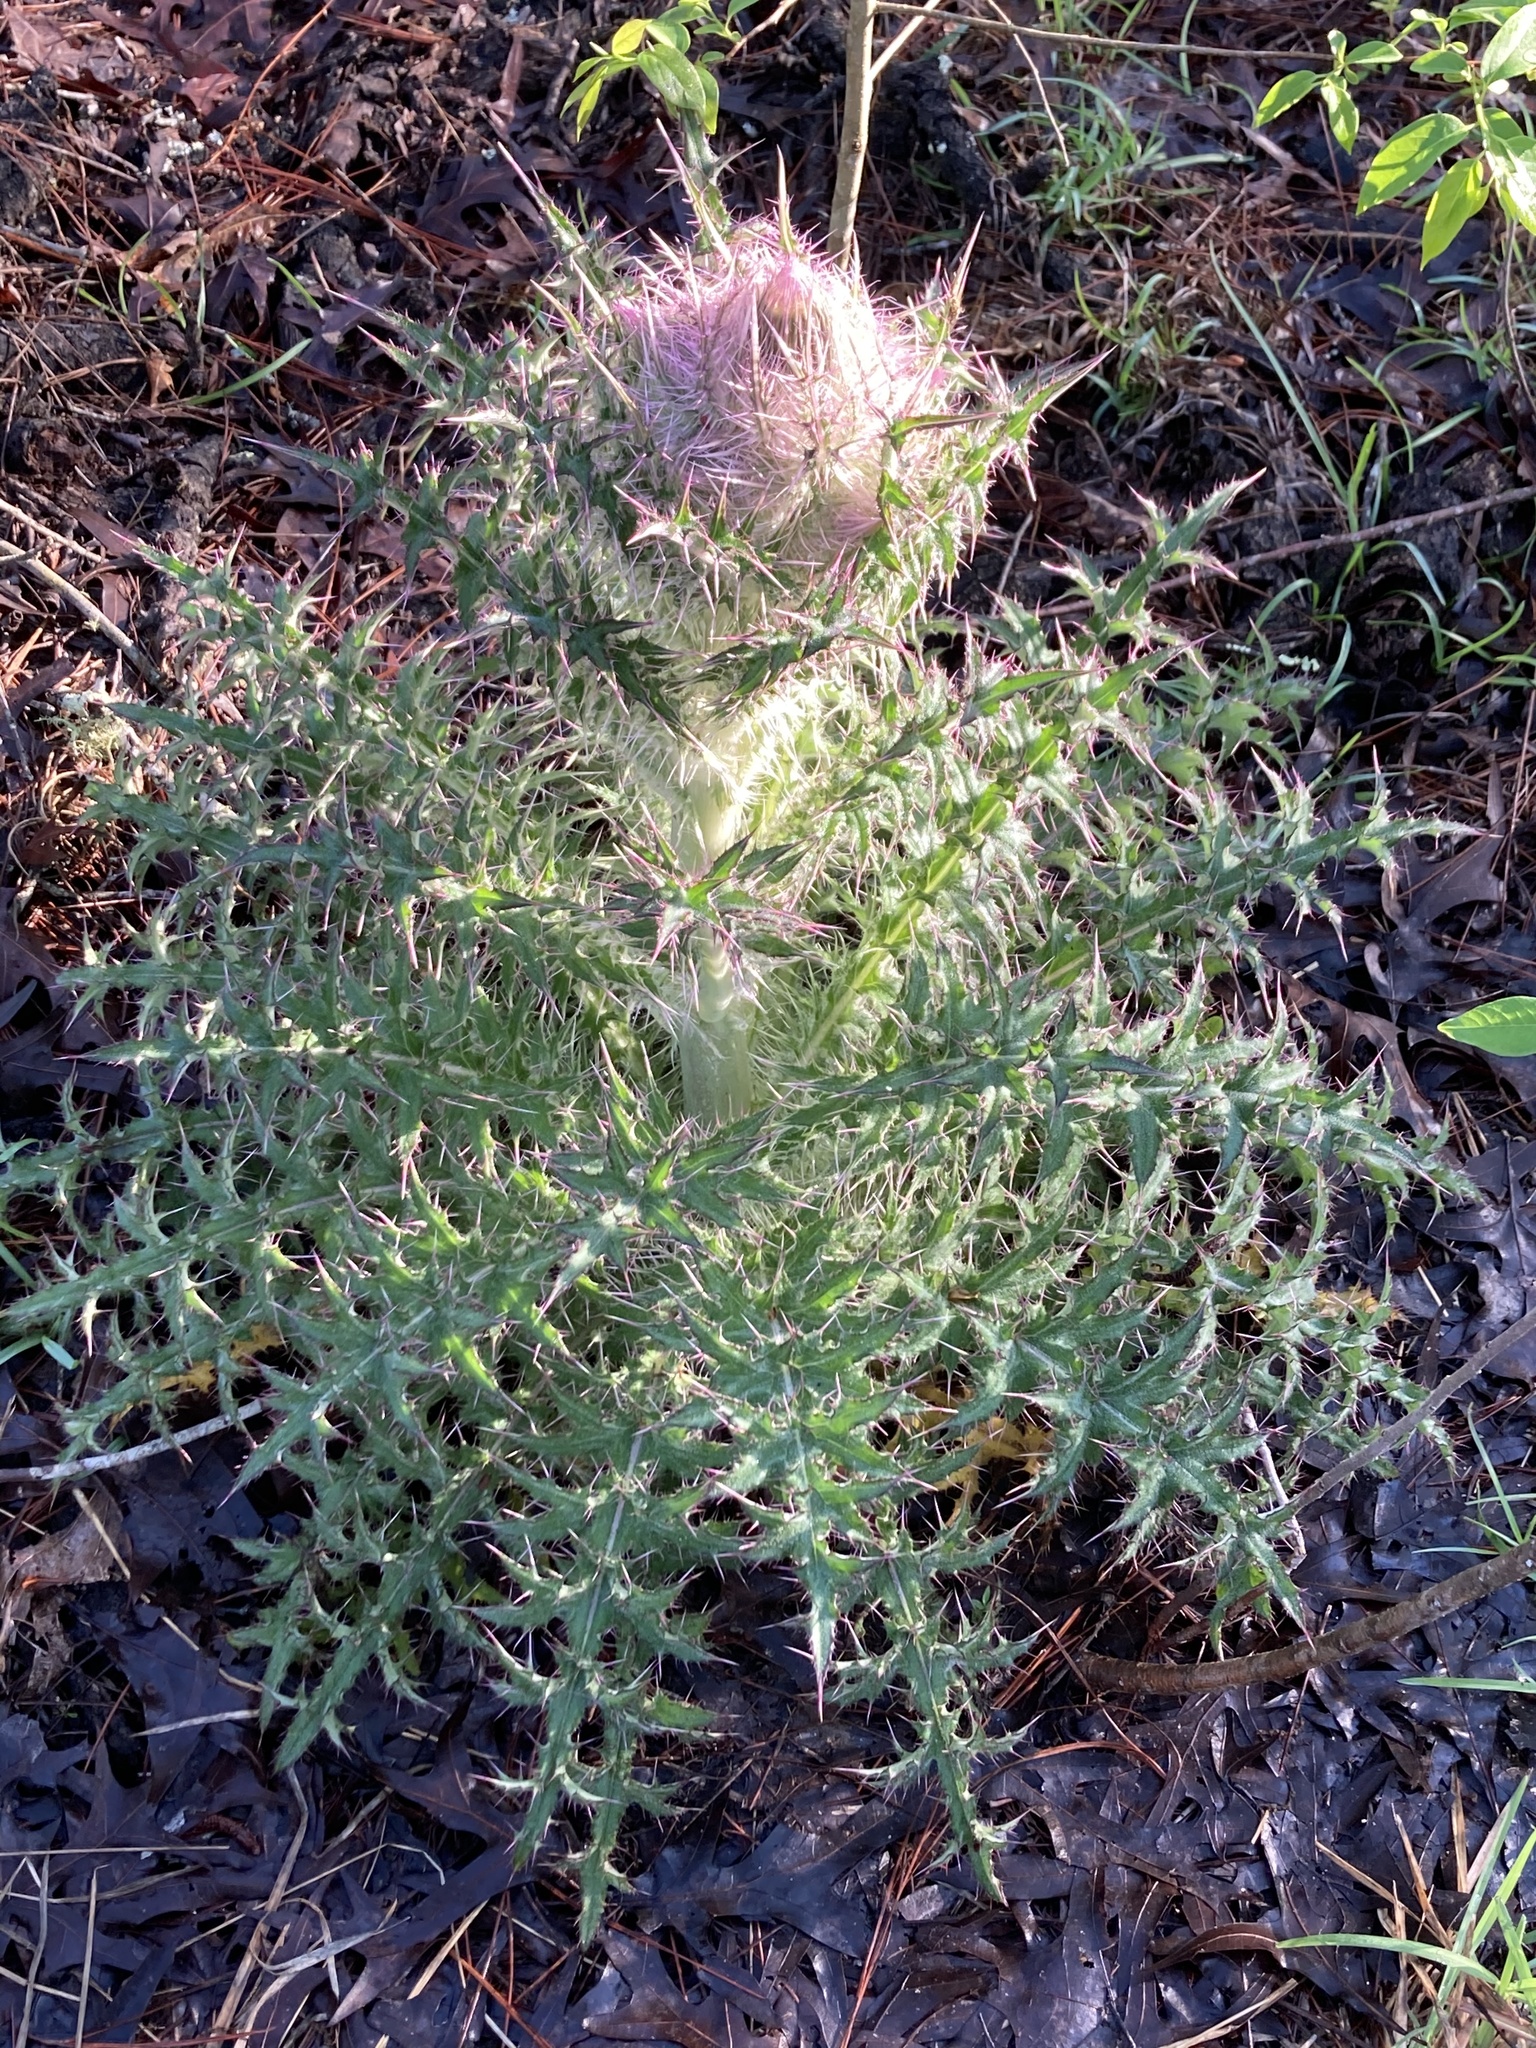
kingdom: Plantae
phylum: Tracheophyta
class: Magnoliopsida
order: Asterales
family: Asteraceae
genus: Cirsium
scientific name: Cirsium horridulum
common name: Bristly thistle
